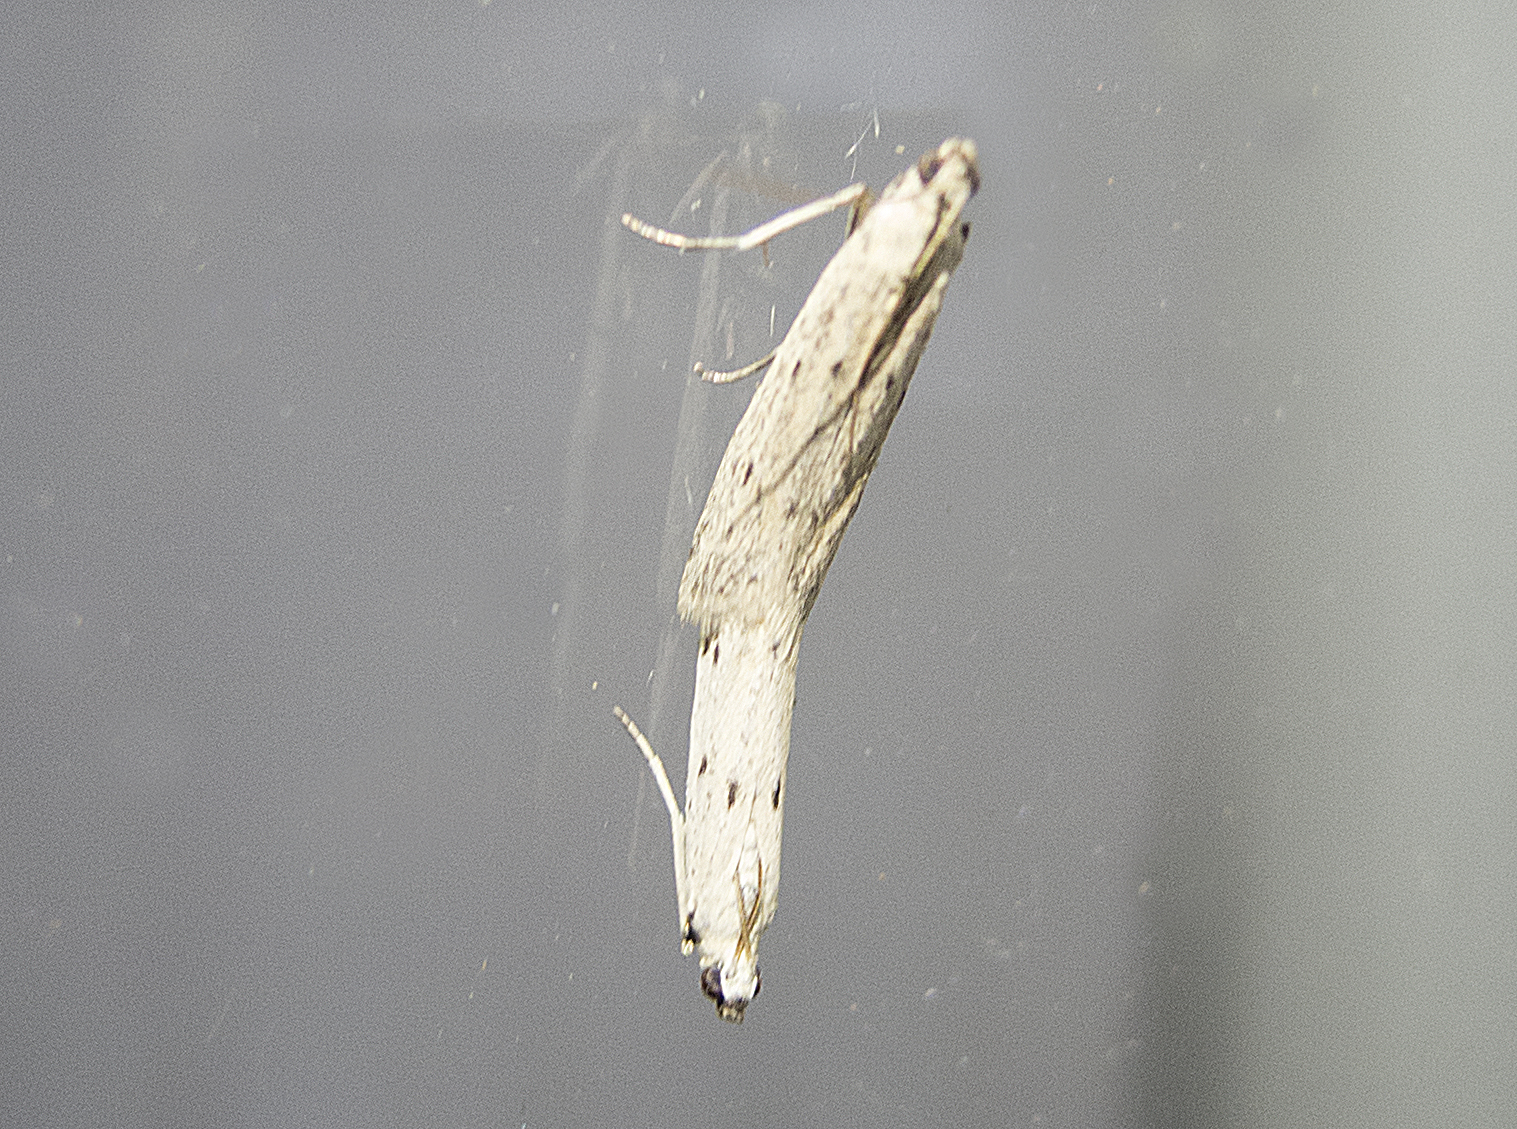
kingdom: Animalia
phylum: Arthropoda
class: Insecta
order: Lepidoptera
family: Pyralidae
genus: Phycitodes
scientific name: Phycitodes lacteella
